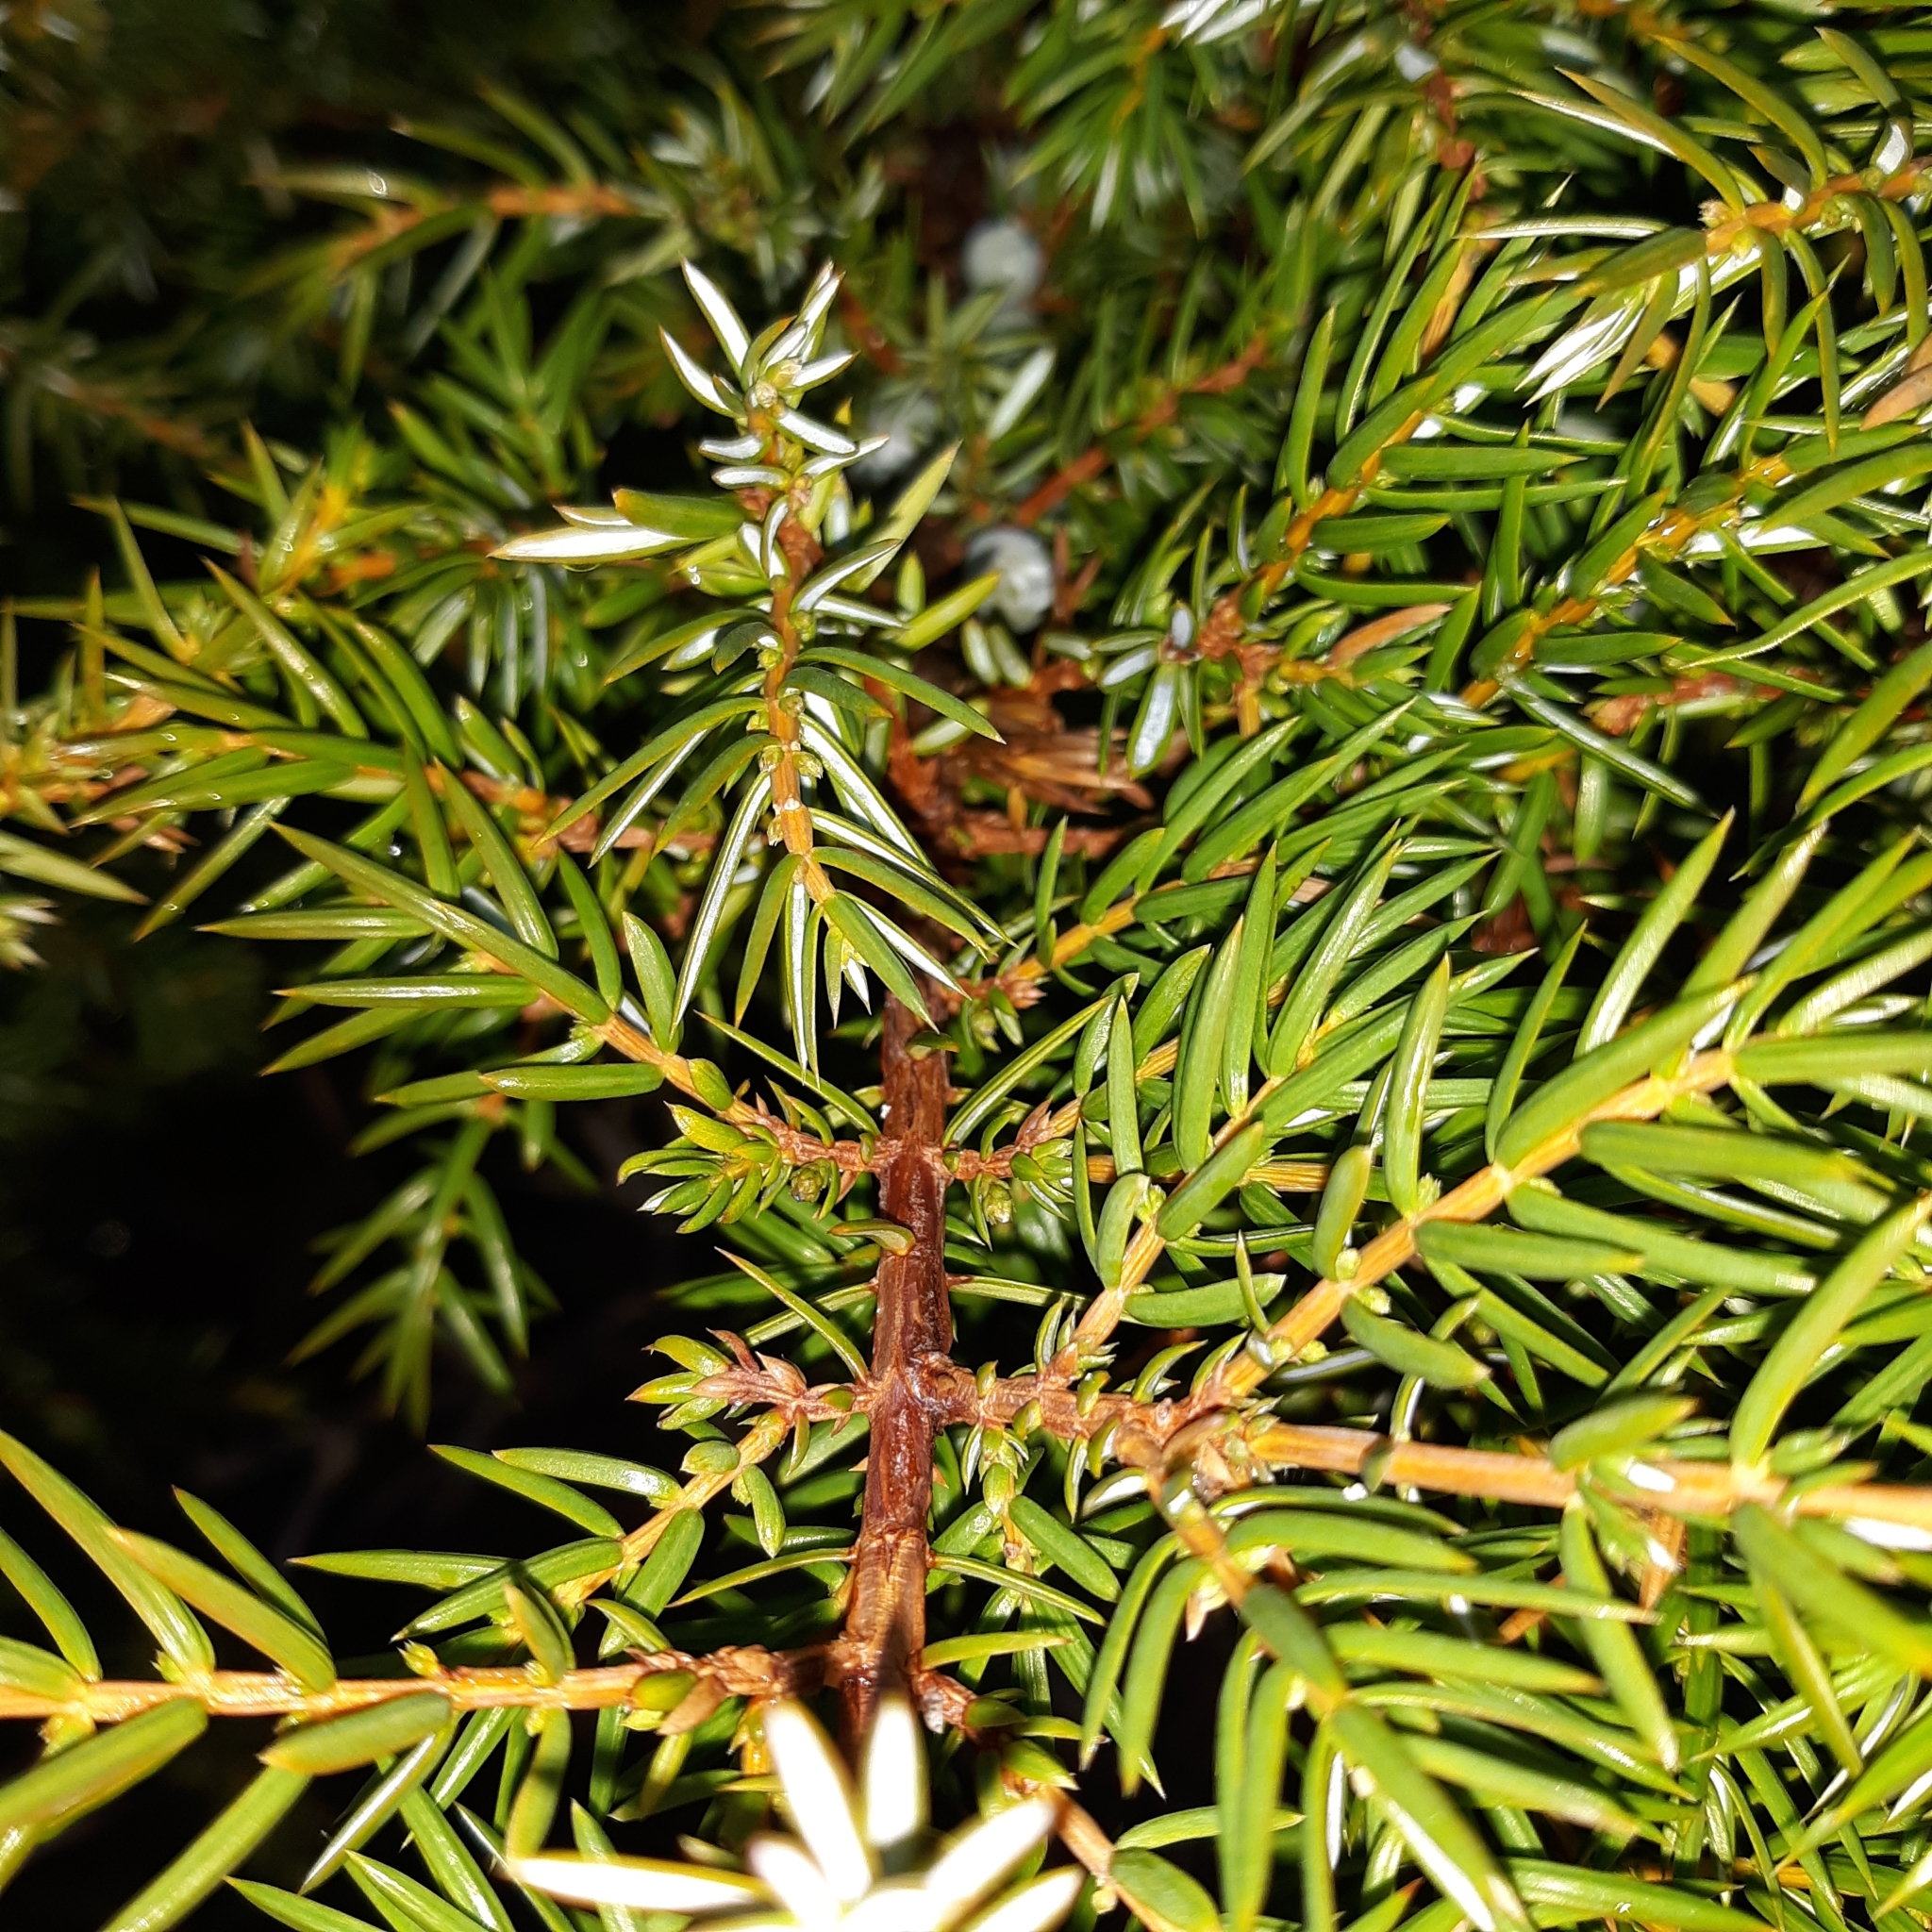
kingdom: Plantae
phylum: Tracheophyta
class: Pinopsida
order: Pinales
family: Cupressaceae
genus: Juniperus
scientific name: Juniperus communis
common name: Common juniper
